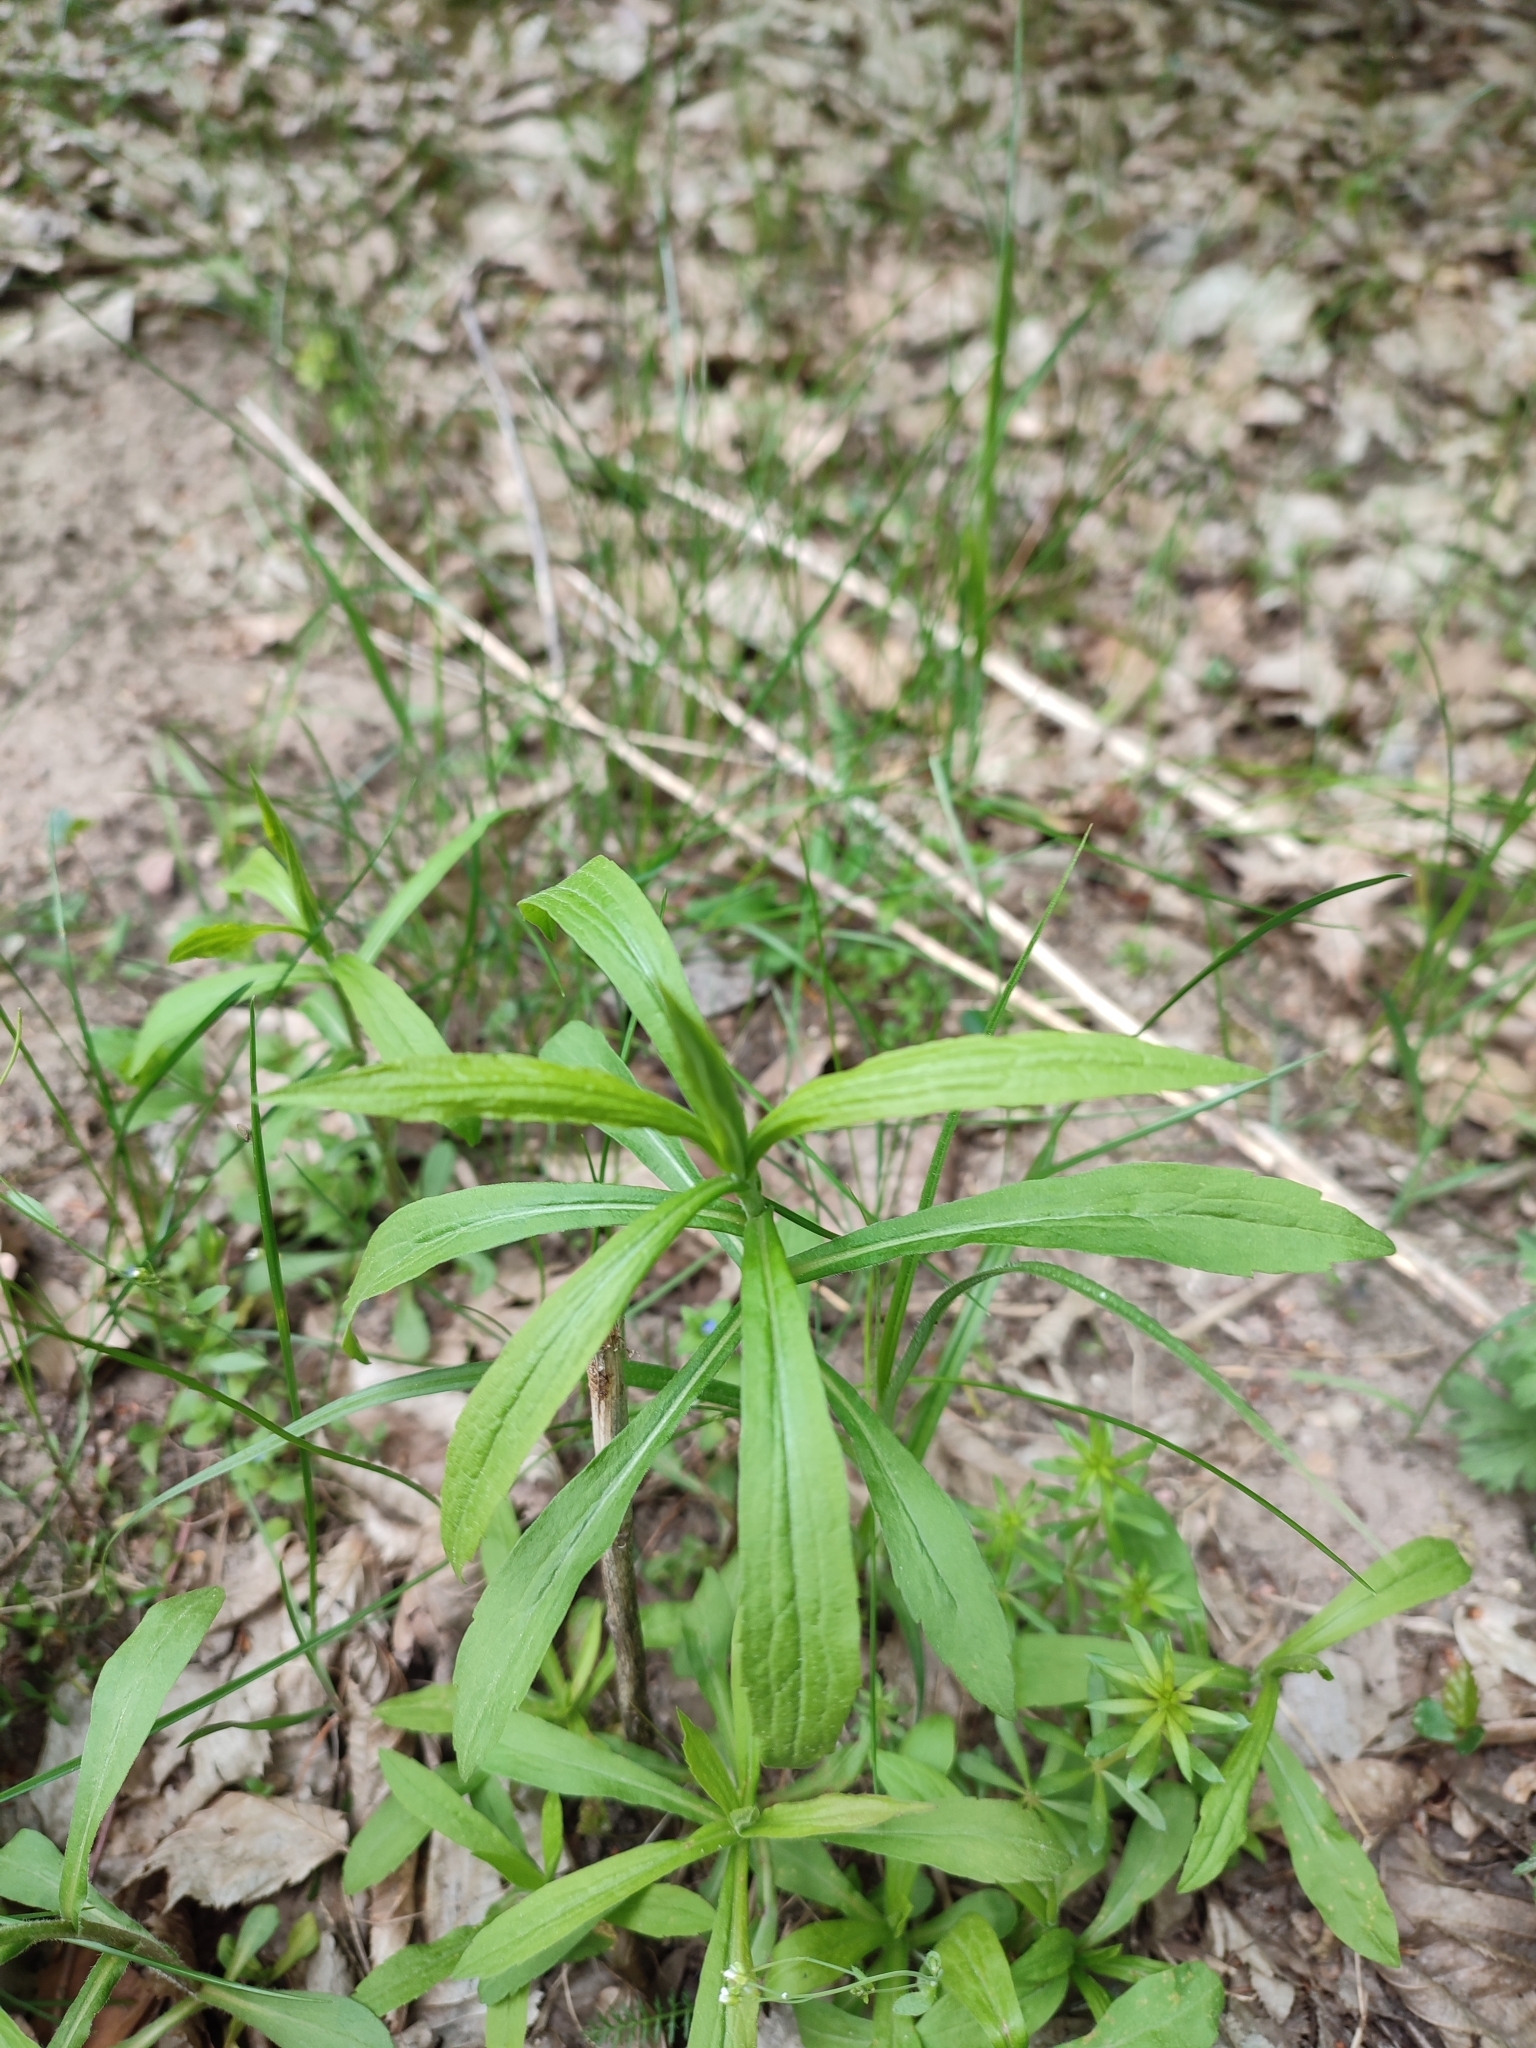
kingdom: Plantae
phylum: Tracheophyta
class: Magnoliopsida
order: Asterales
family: Asteraceae
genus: Solidago
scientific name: Solidago canadensis
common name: Canada goldenrod
